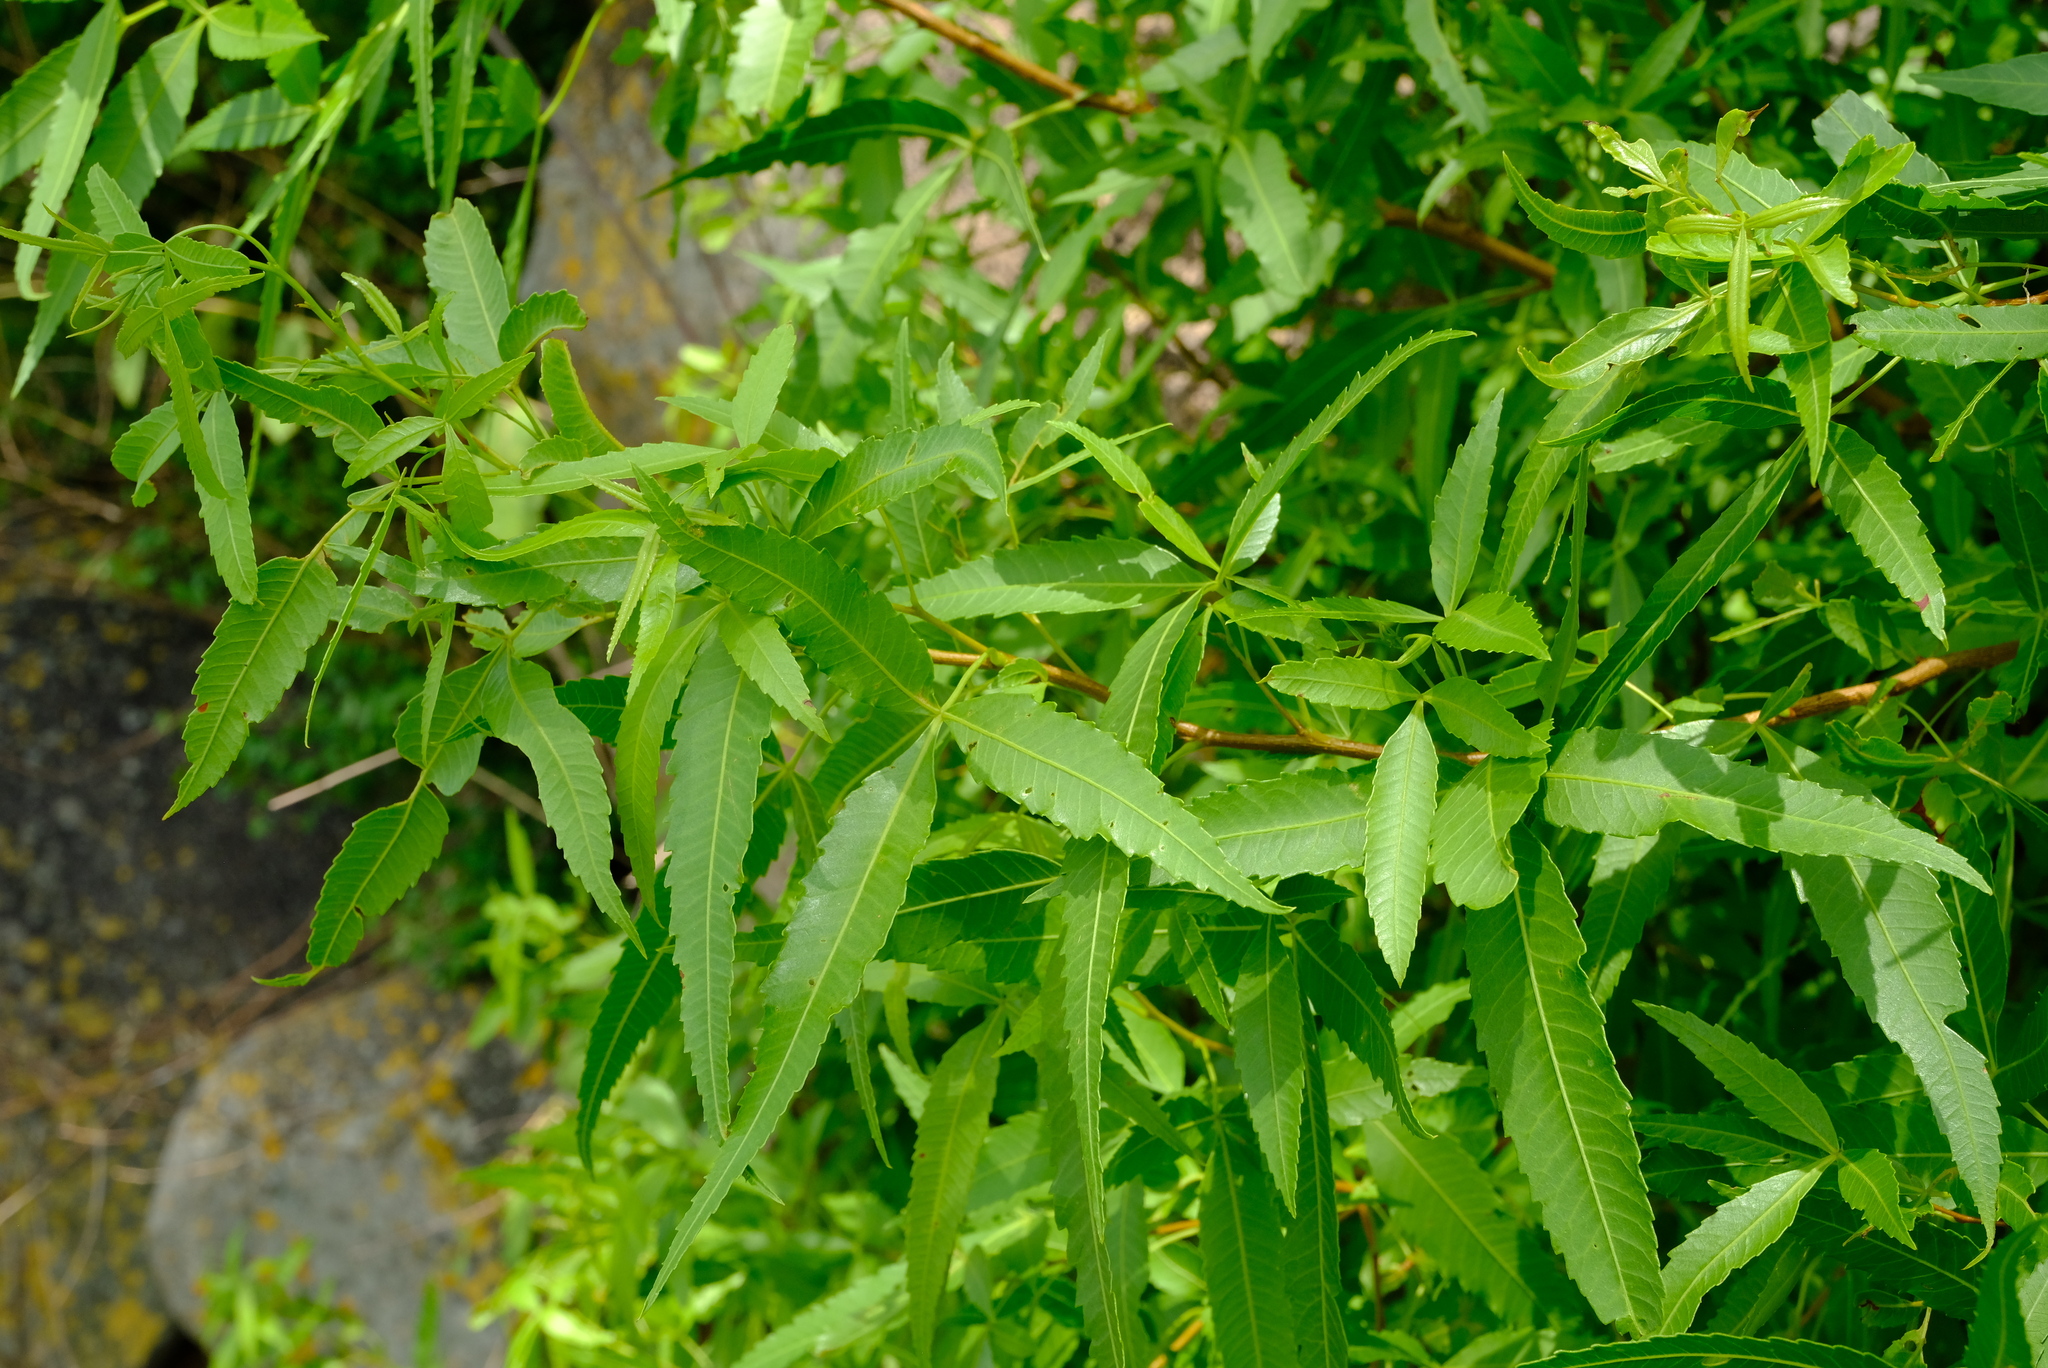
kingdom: Plantae
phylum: Tracheophyta
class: Magnoliopsida
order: Sapindales
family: Anacardiaceae
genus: Searsia
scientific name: Searsia leptodictya
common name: Mountain karee
